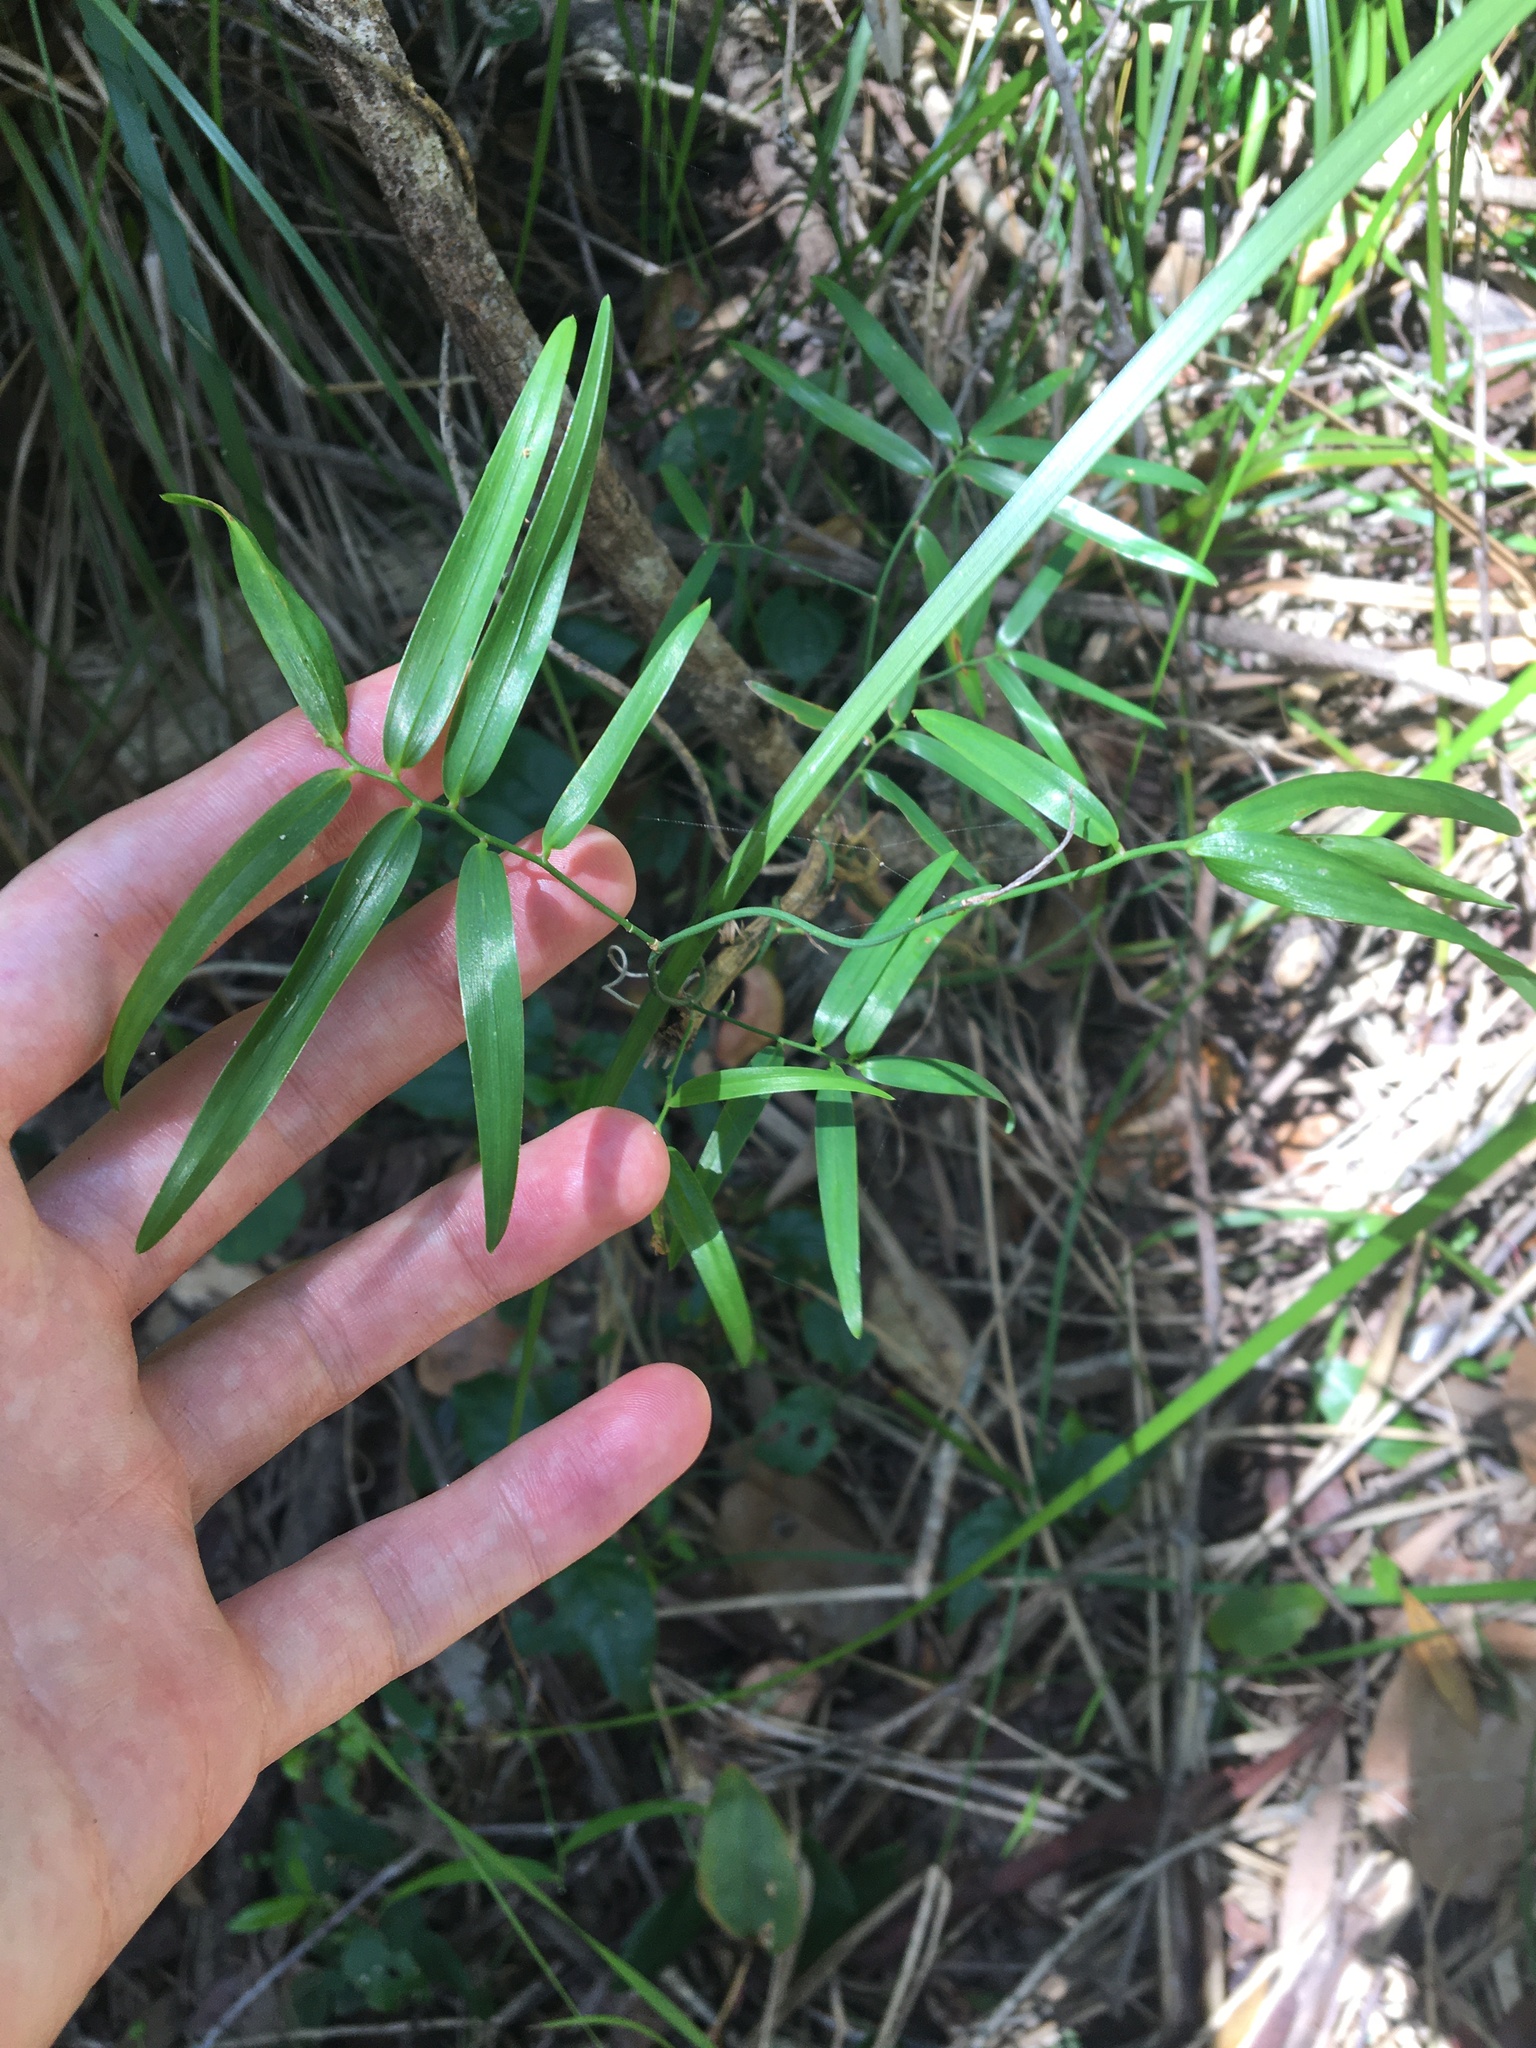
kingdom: Plantae
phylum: Tracheophyta
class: Liliopsida
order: Asparagales
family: Asphodelaceae
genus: Geitonoplesium
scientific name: Geitonoplesium cymosum
